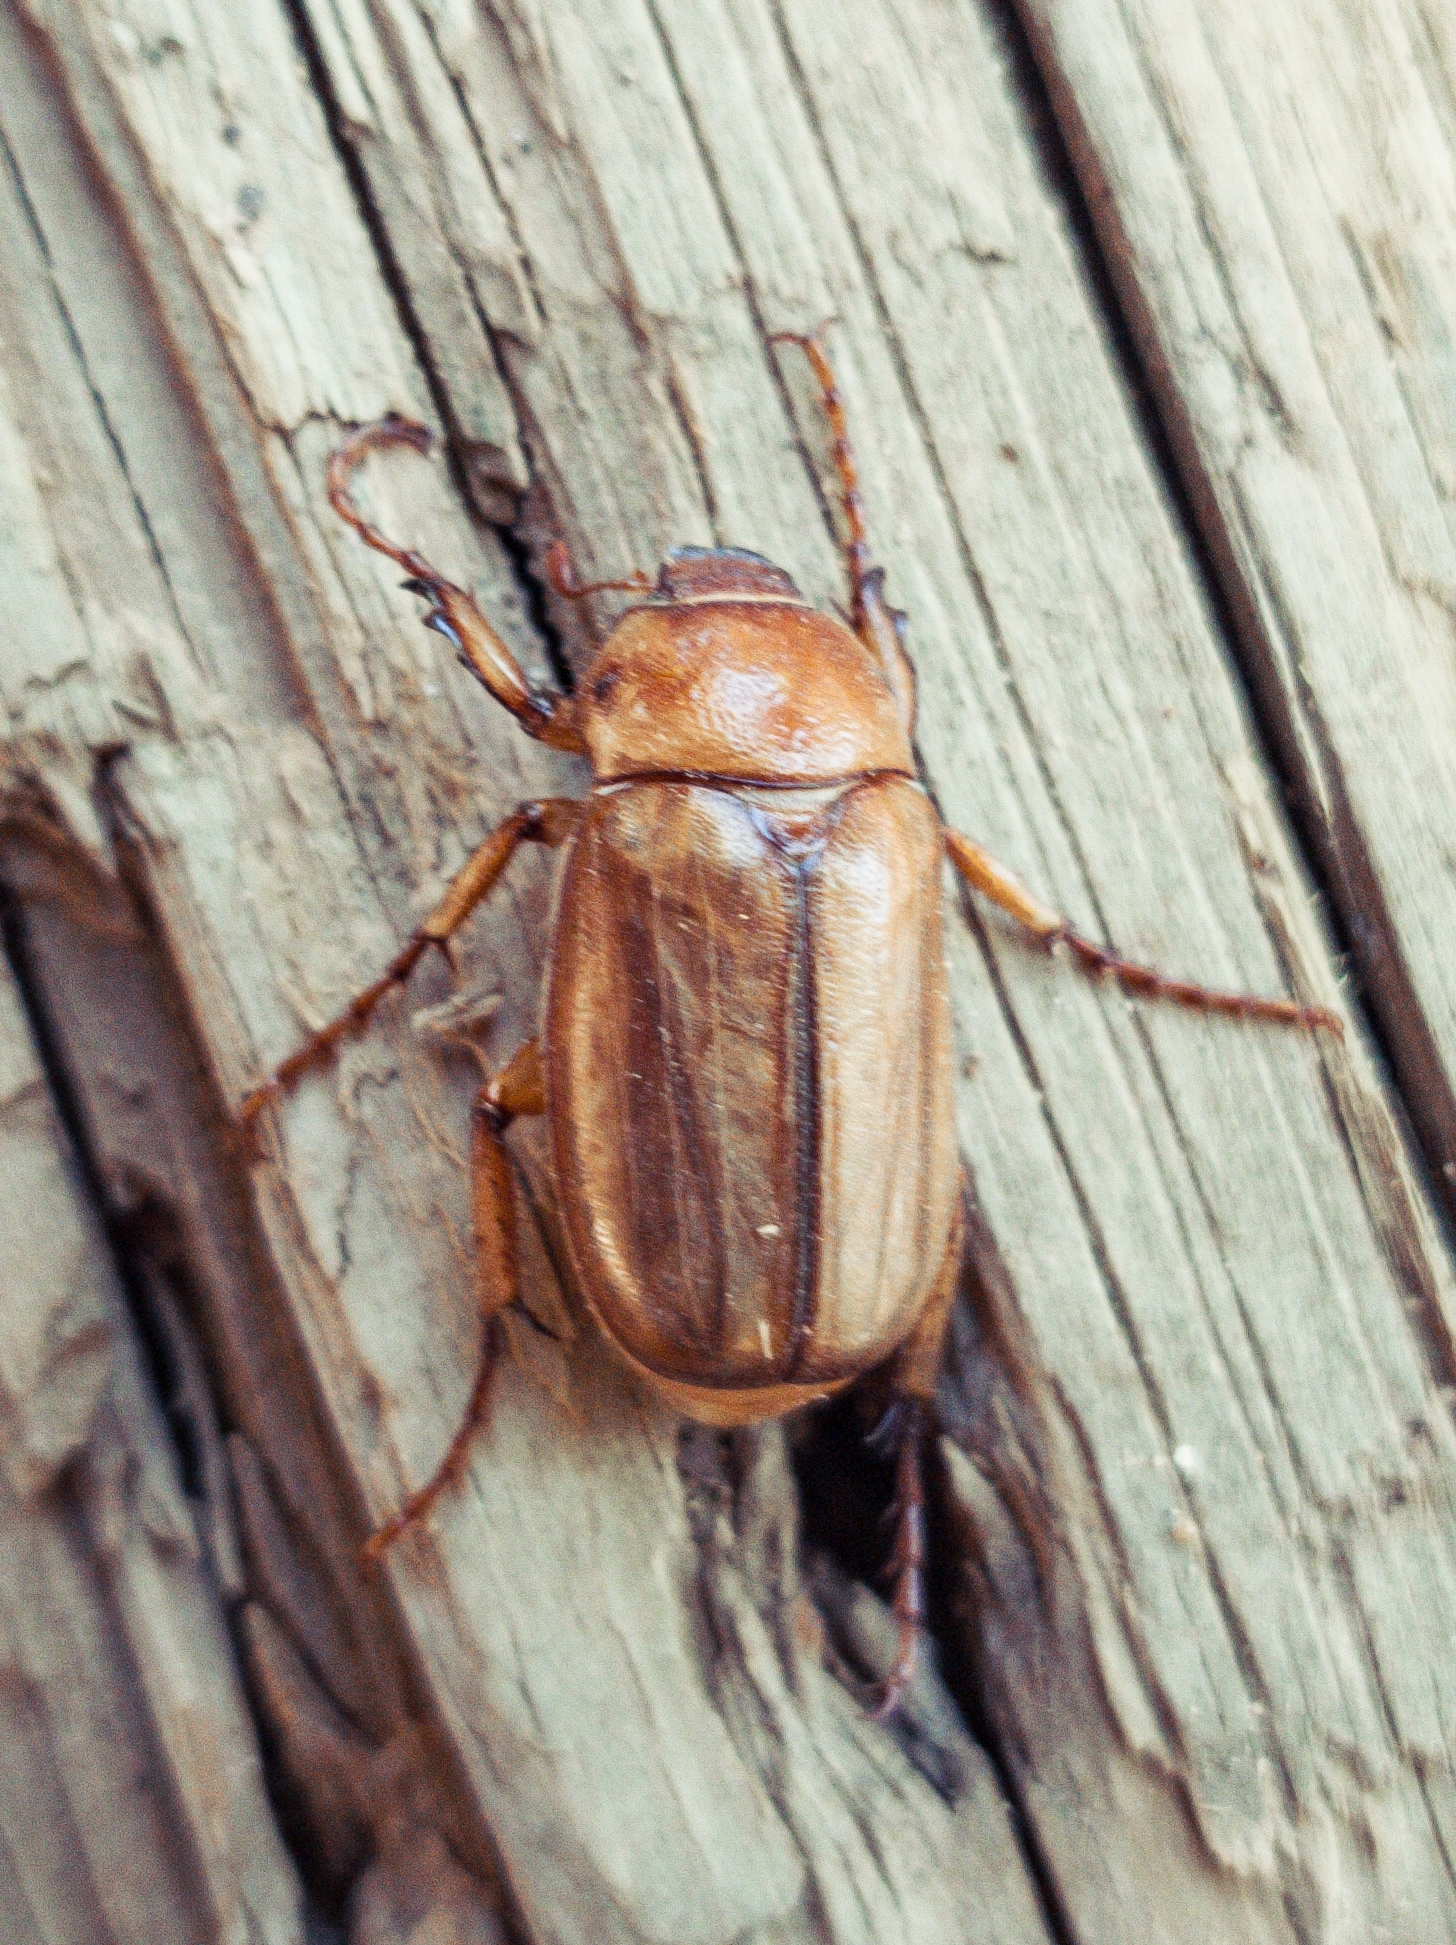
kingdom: Animalia
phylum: Arthropoda
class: Insecta
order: Coleoptera
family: Scarabaeidae
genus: Amphimallon
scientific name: Amphimallon solstitiale
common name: Summer chafer
